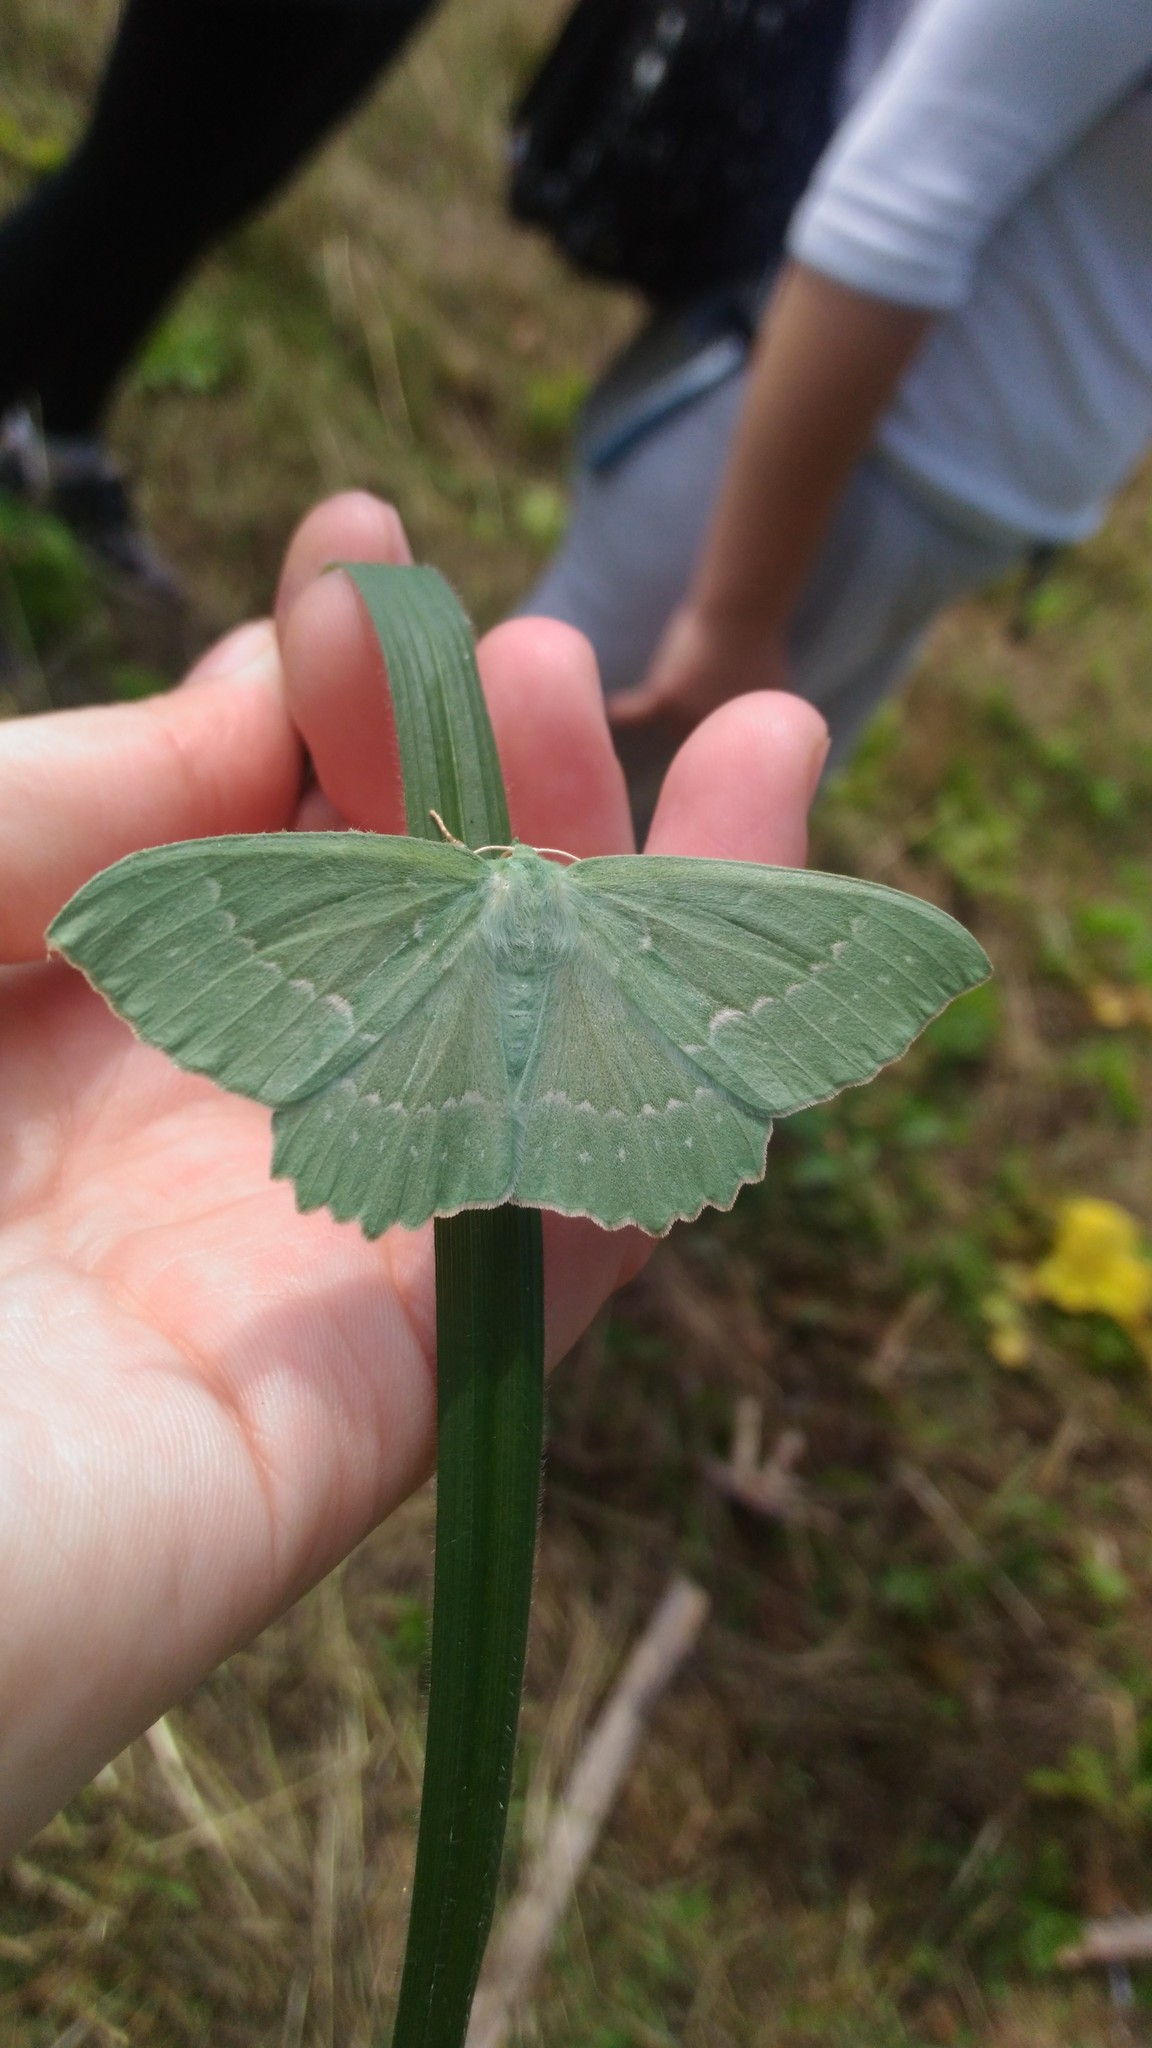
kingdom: Animalia
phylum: Arthropoda
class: Insecta
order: Lepidoptera
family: Geometridae
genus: Geometra
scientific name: Geometra papilionaria
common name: Large emerald
